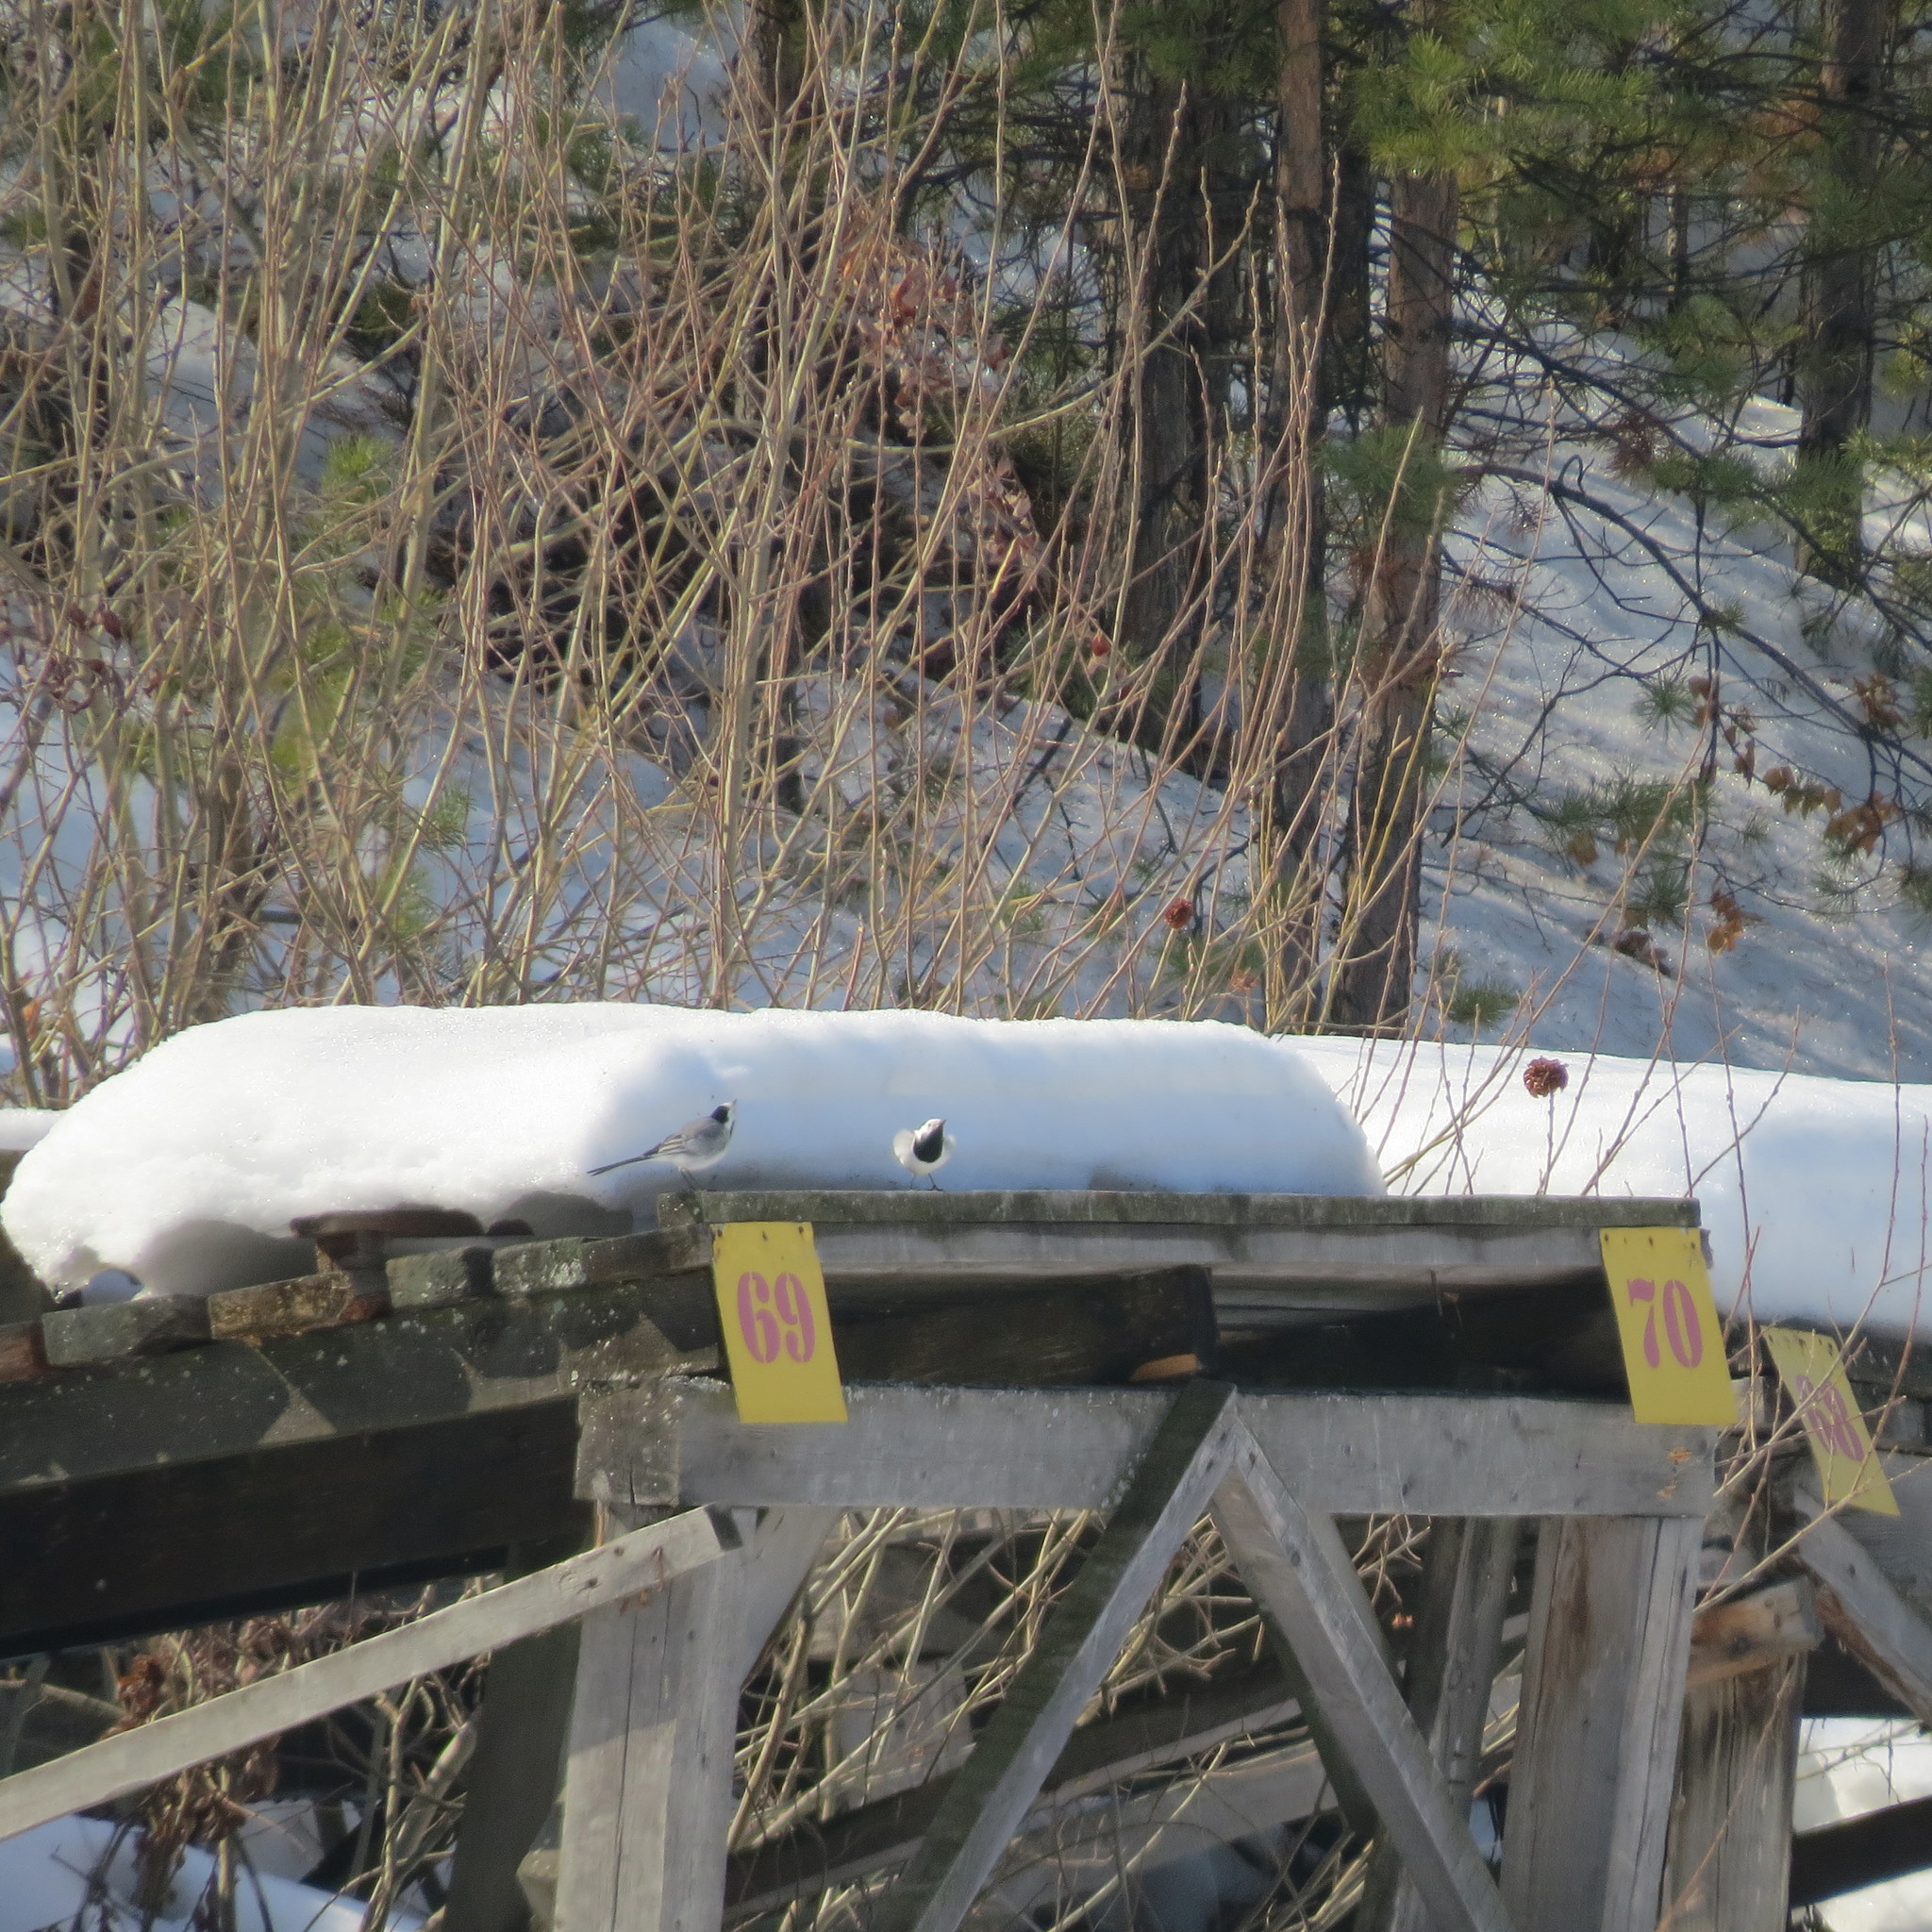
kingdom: Animalia
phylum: Chordata
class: Aves
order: Passeriformes
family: Motacillidae
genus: Motacilla
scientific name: Motacilla alba
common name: White wagtail
